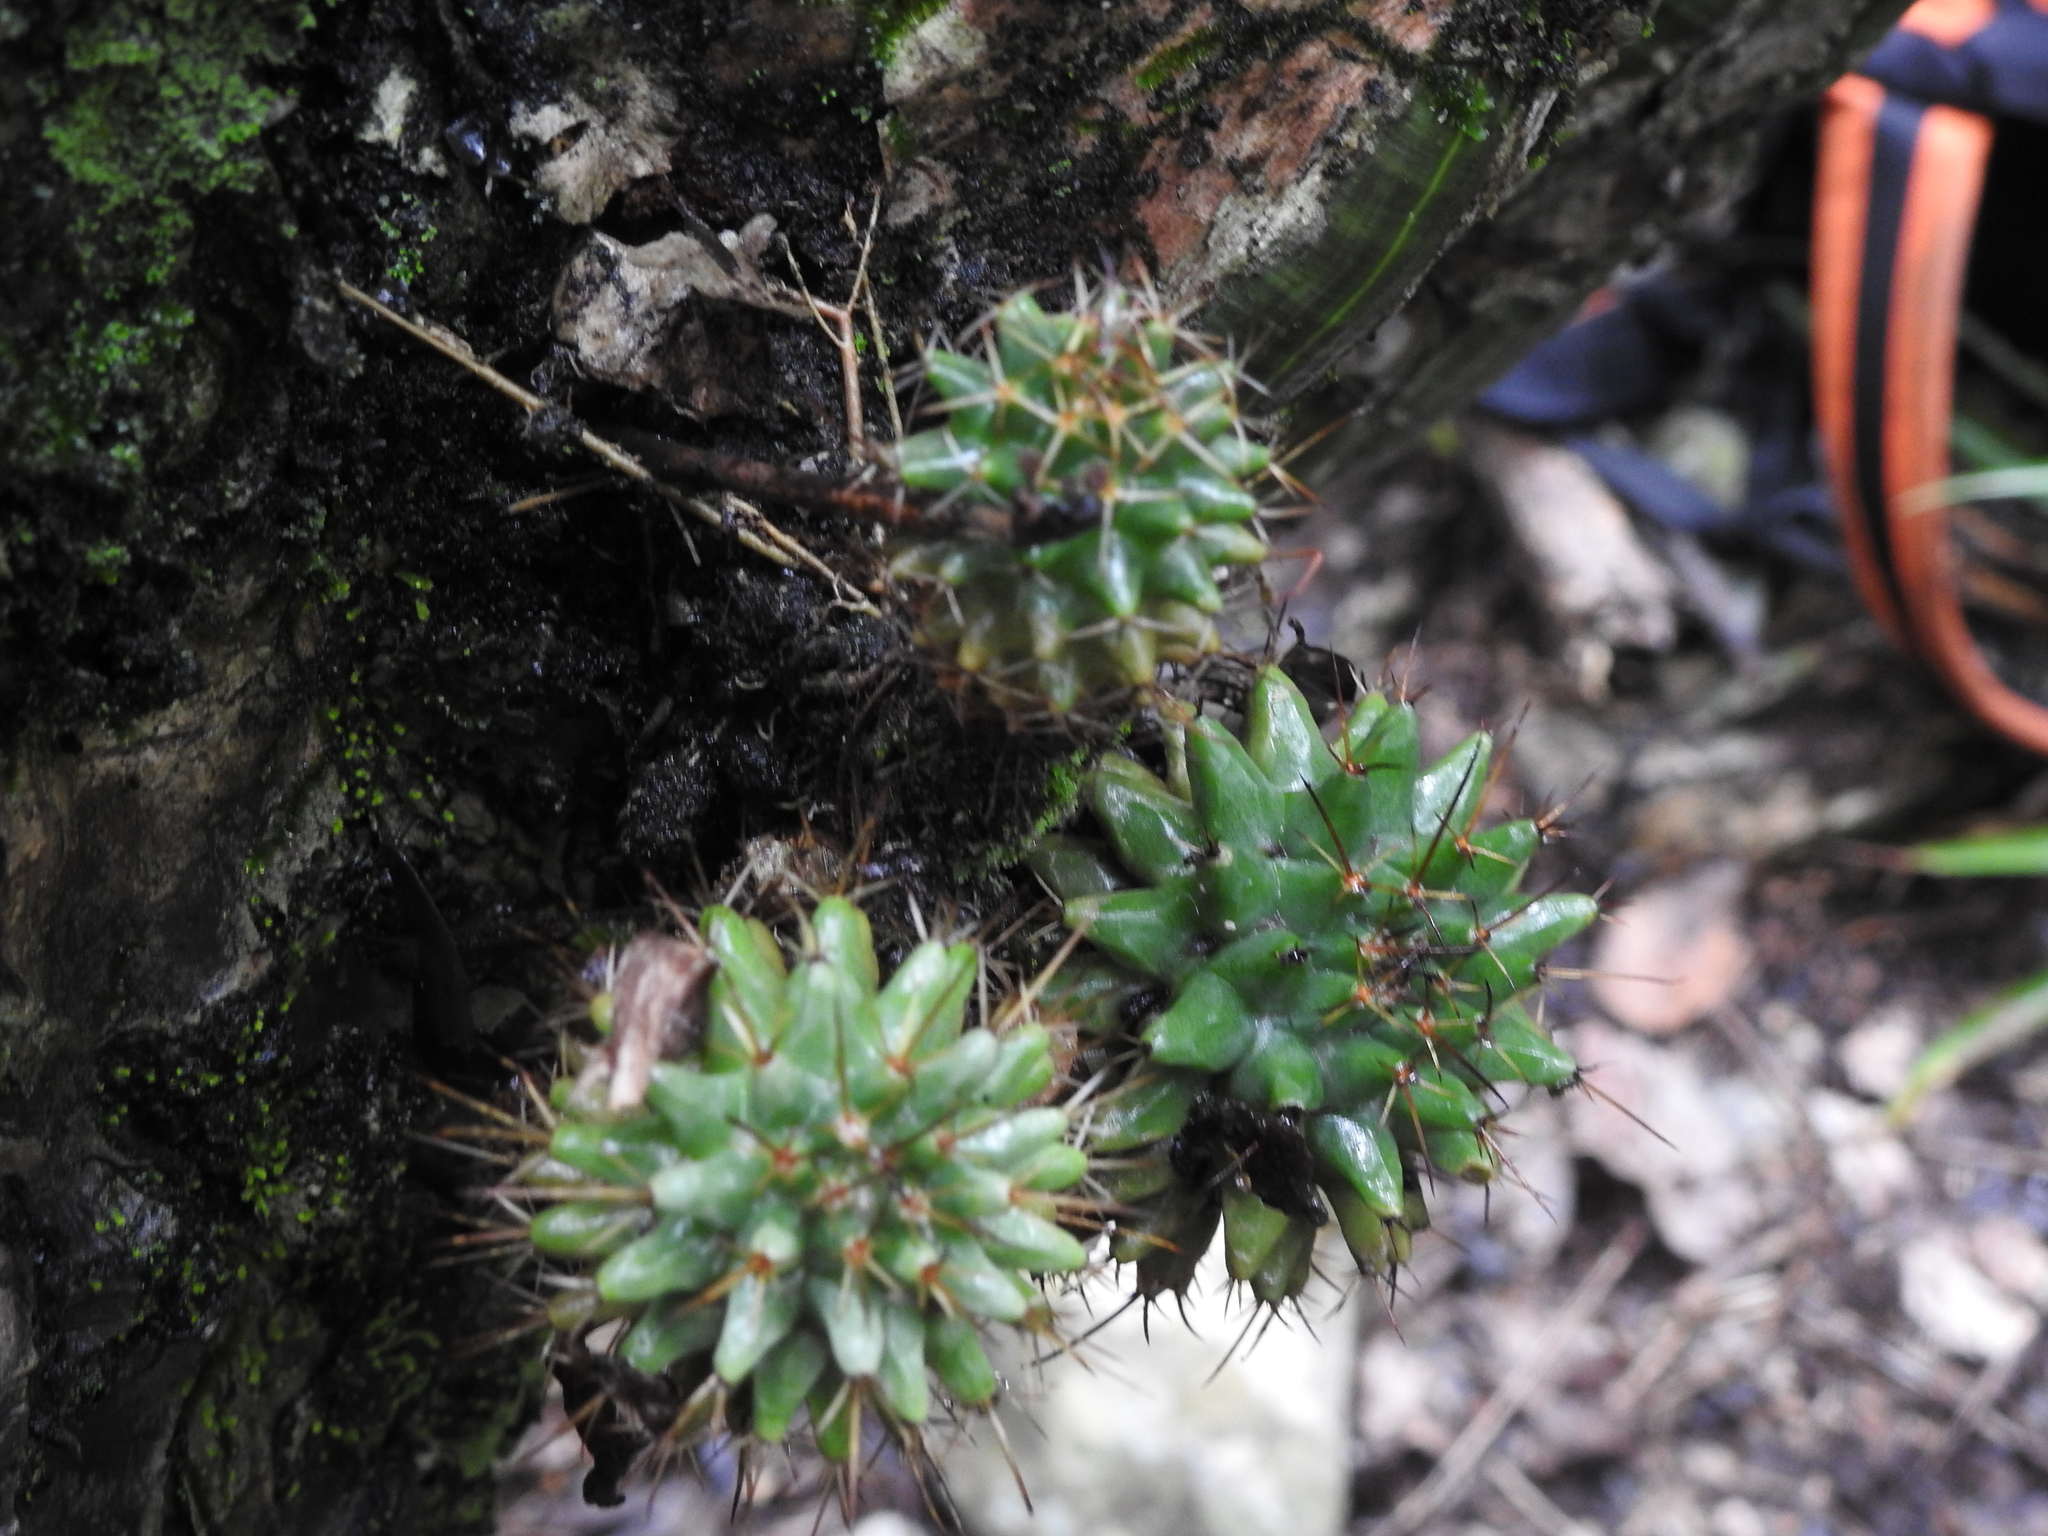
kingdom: Plantae
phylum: Tracheophyta
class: Magnoliopsida
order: Caryophyllales
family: Cactaceae
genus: Mammillaria
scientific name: Mammillaria magnimamma
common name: Mexican pincushion
